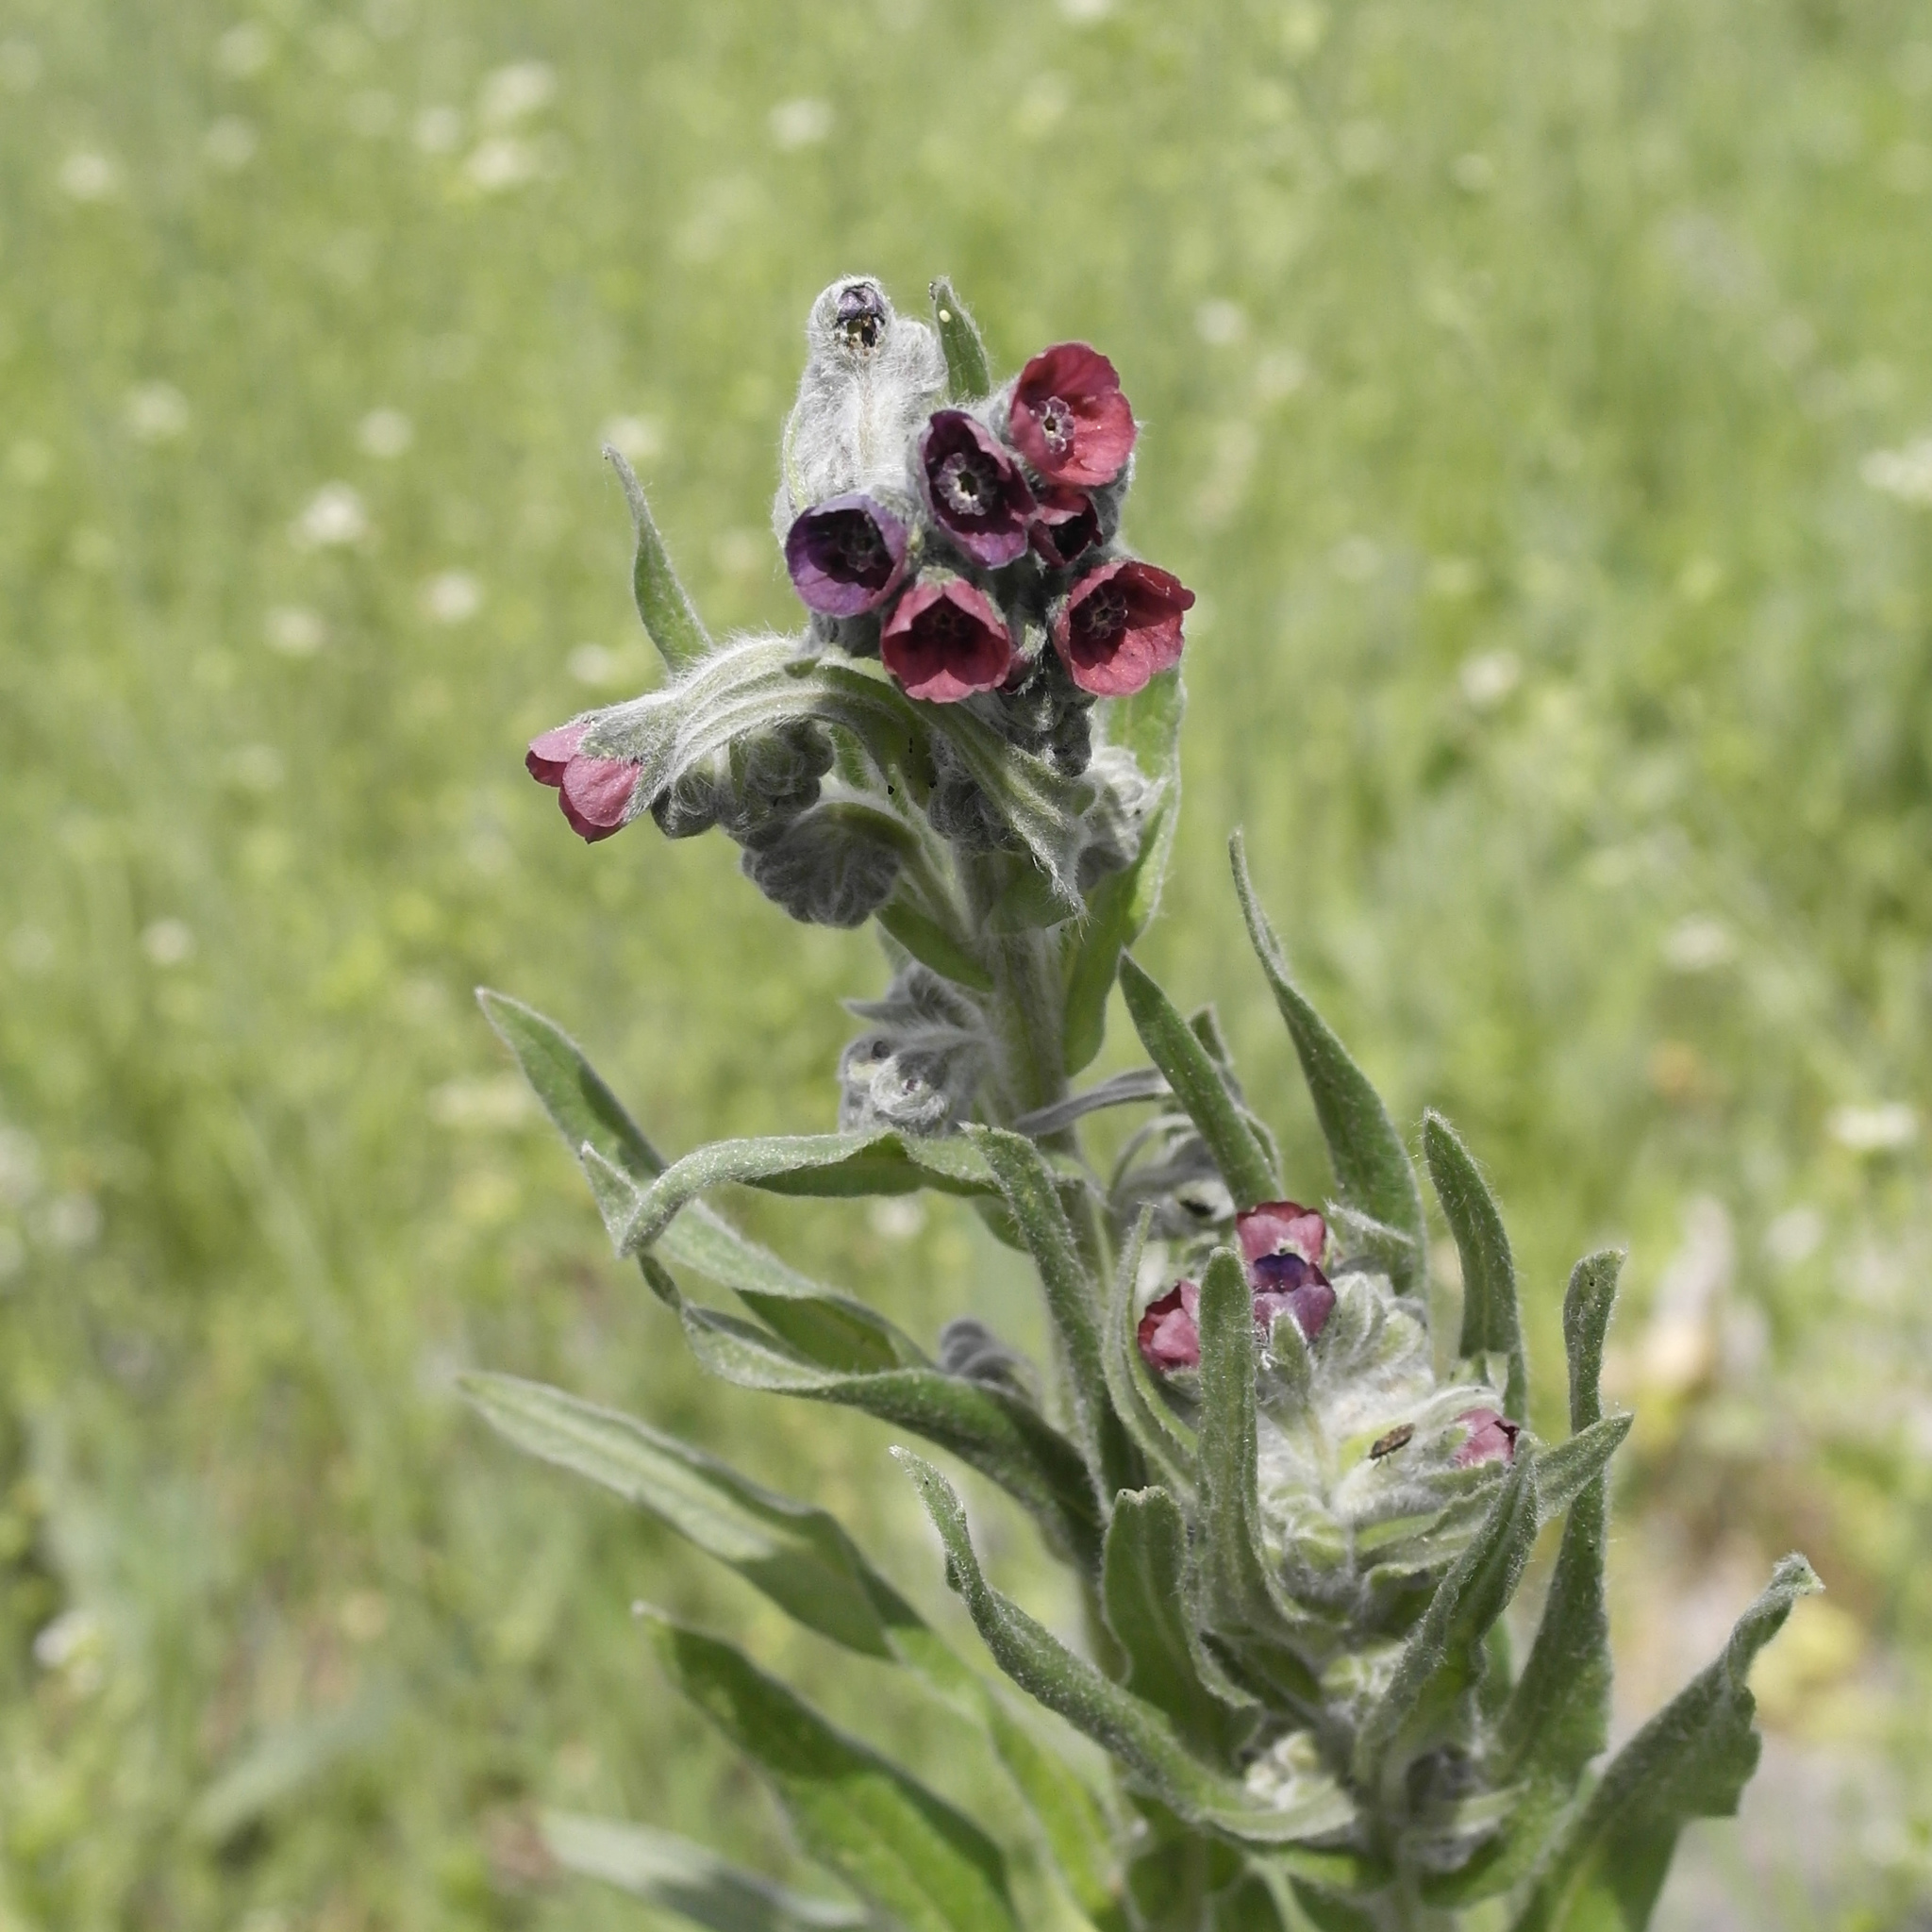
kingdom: Plantae
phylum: Tracheophyta
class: Magnoliopsida
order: Boraginales
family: Boraginaceae
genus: Cynoglossum
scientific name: Cynoglossum officinale
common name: Hound's-tongue
